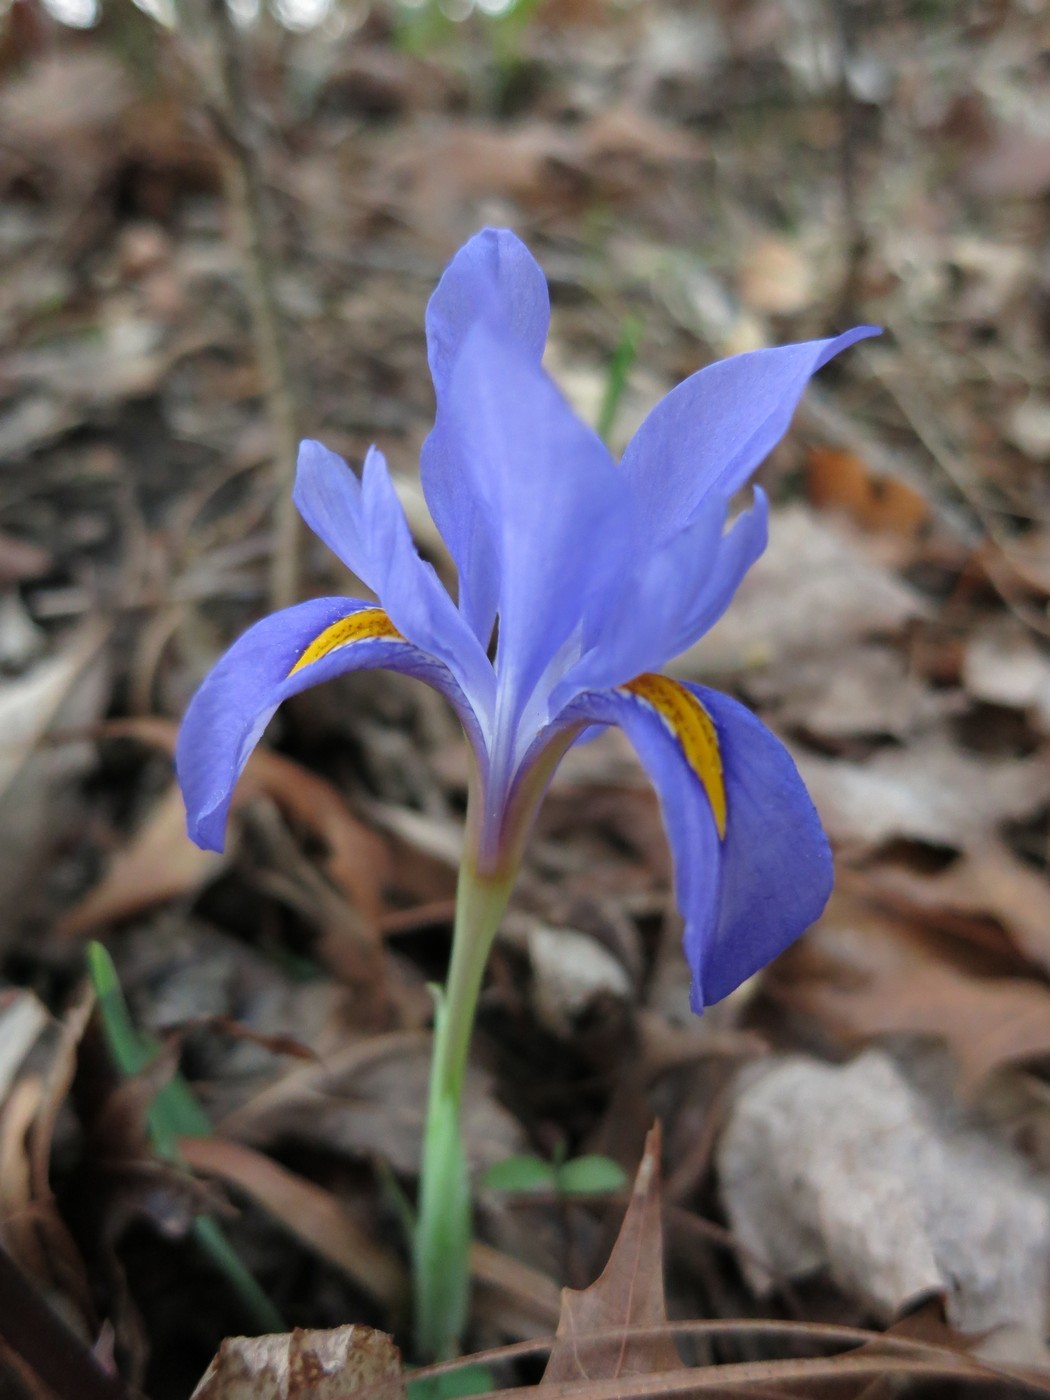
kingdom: Plantae
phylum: Tracheophyta
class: Liliopsida
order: Asparagales
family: Iridaceae
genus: Iris
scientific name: Iris verna
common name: Dwarf iris
